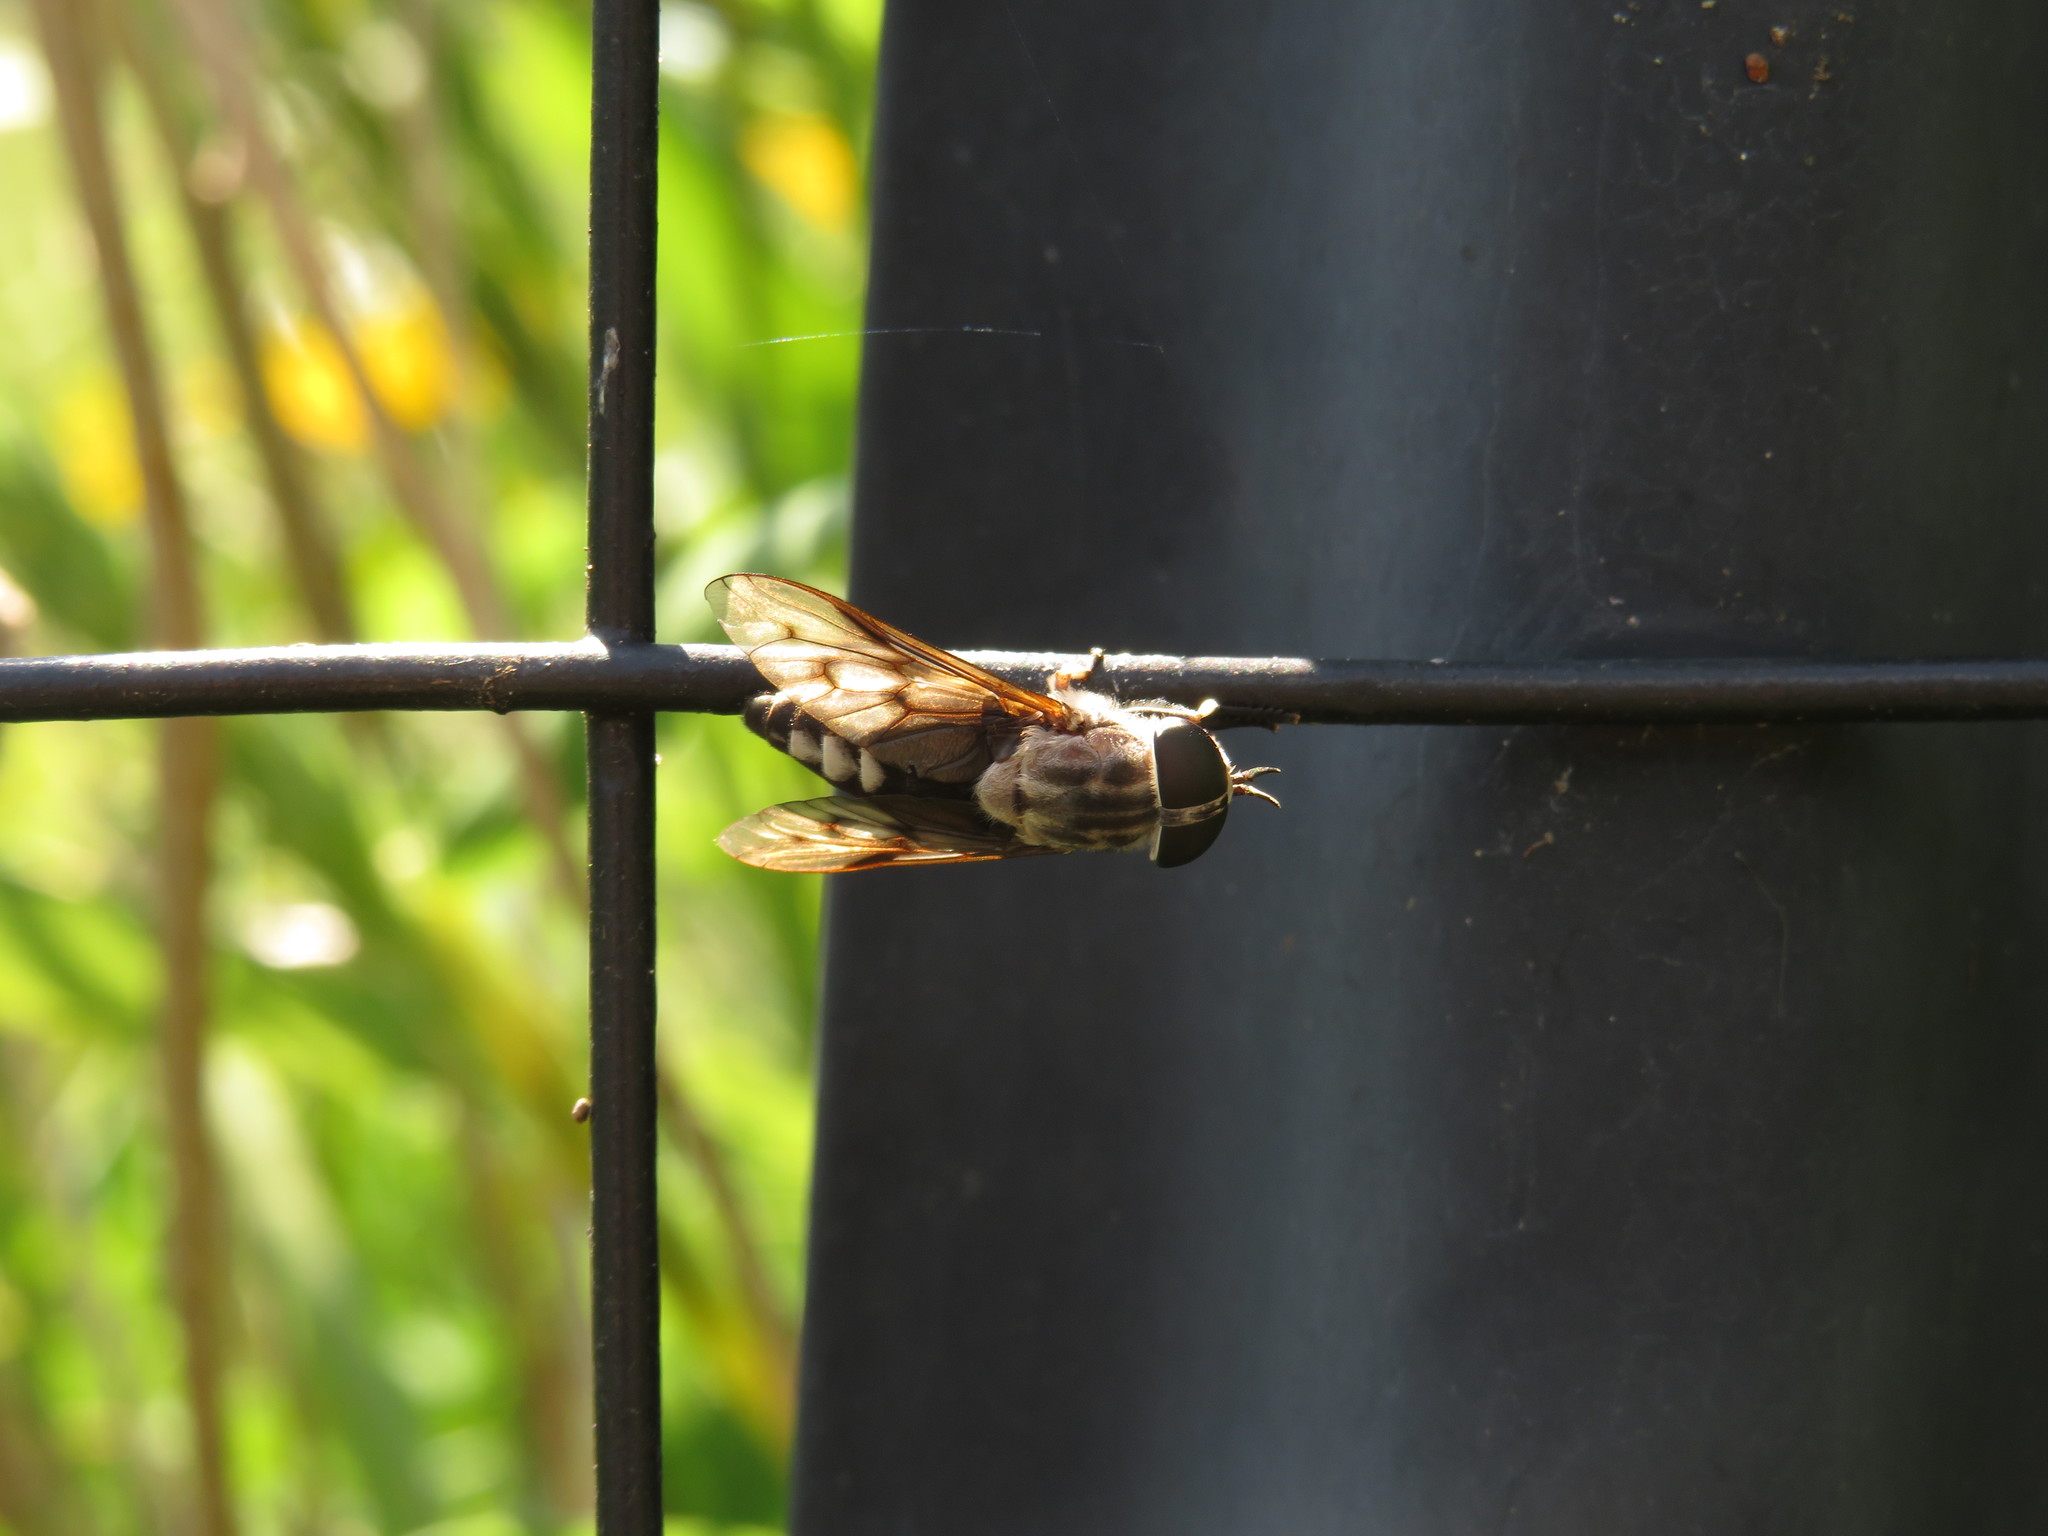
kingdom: Animalia
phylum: Arthropoda
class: Insecta
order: Diptera
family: Tabanidae
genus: Tabanus
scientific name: Tabanus trimaculatus
